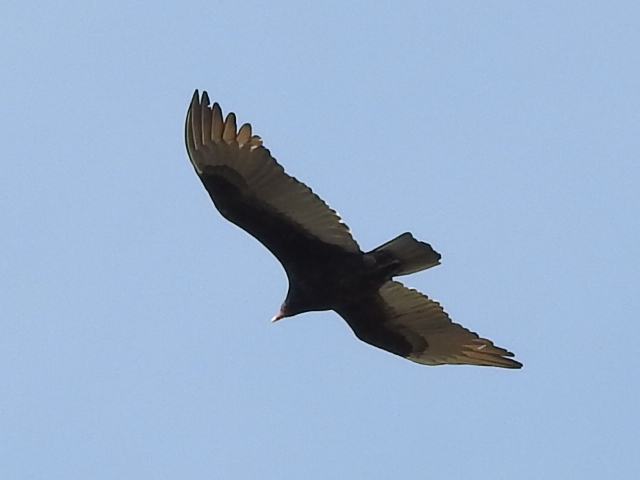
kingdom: Animalia
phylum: Chordata
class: Aves
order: Accipitriformes
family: Cathartidae
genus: Cathartes
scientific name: Cathartes aura
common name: Turkey vulture
